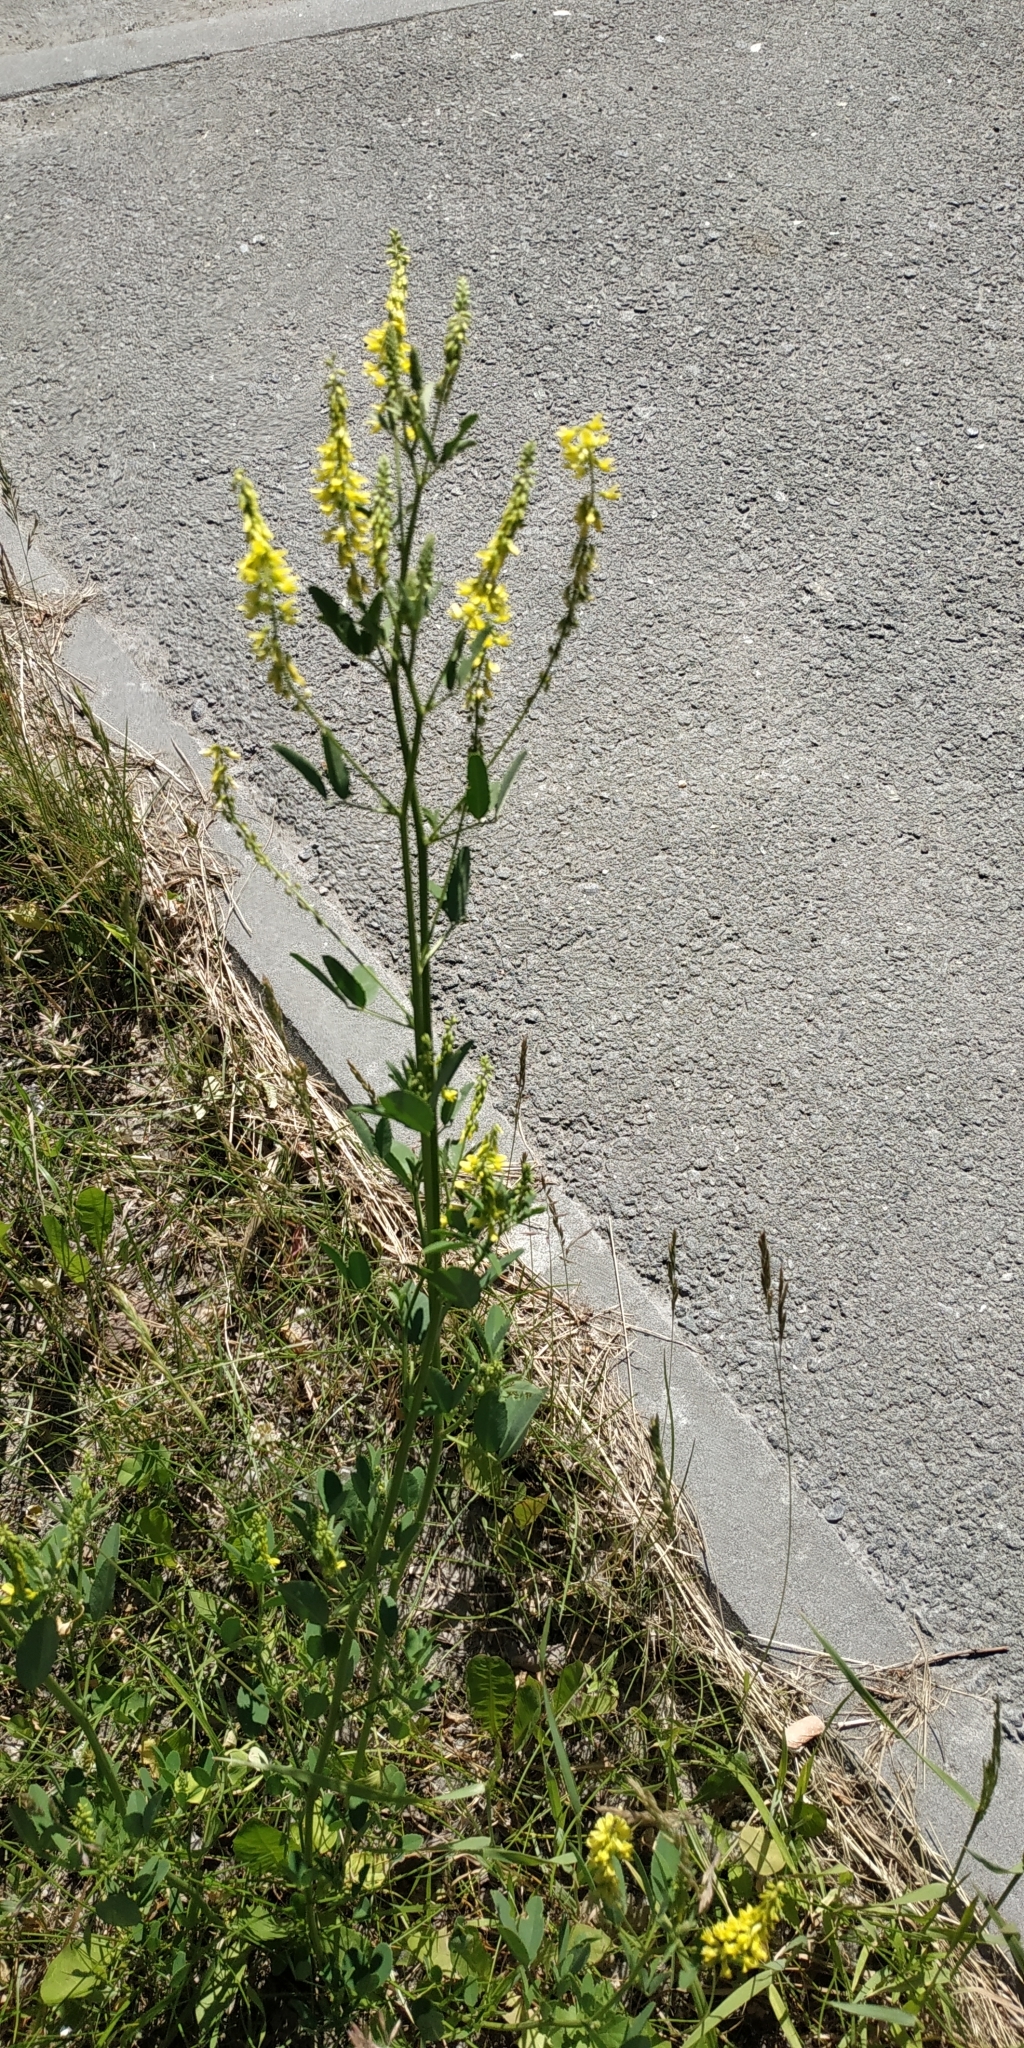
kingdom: Plantae
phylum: Tracheophyta
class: Magnoliopsida
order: Fabales
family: Fabaceae
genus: Melilotus
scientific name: Melilotus officinalis
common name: Sweetclover
